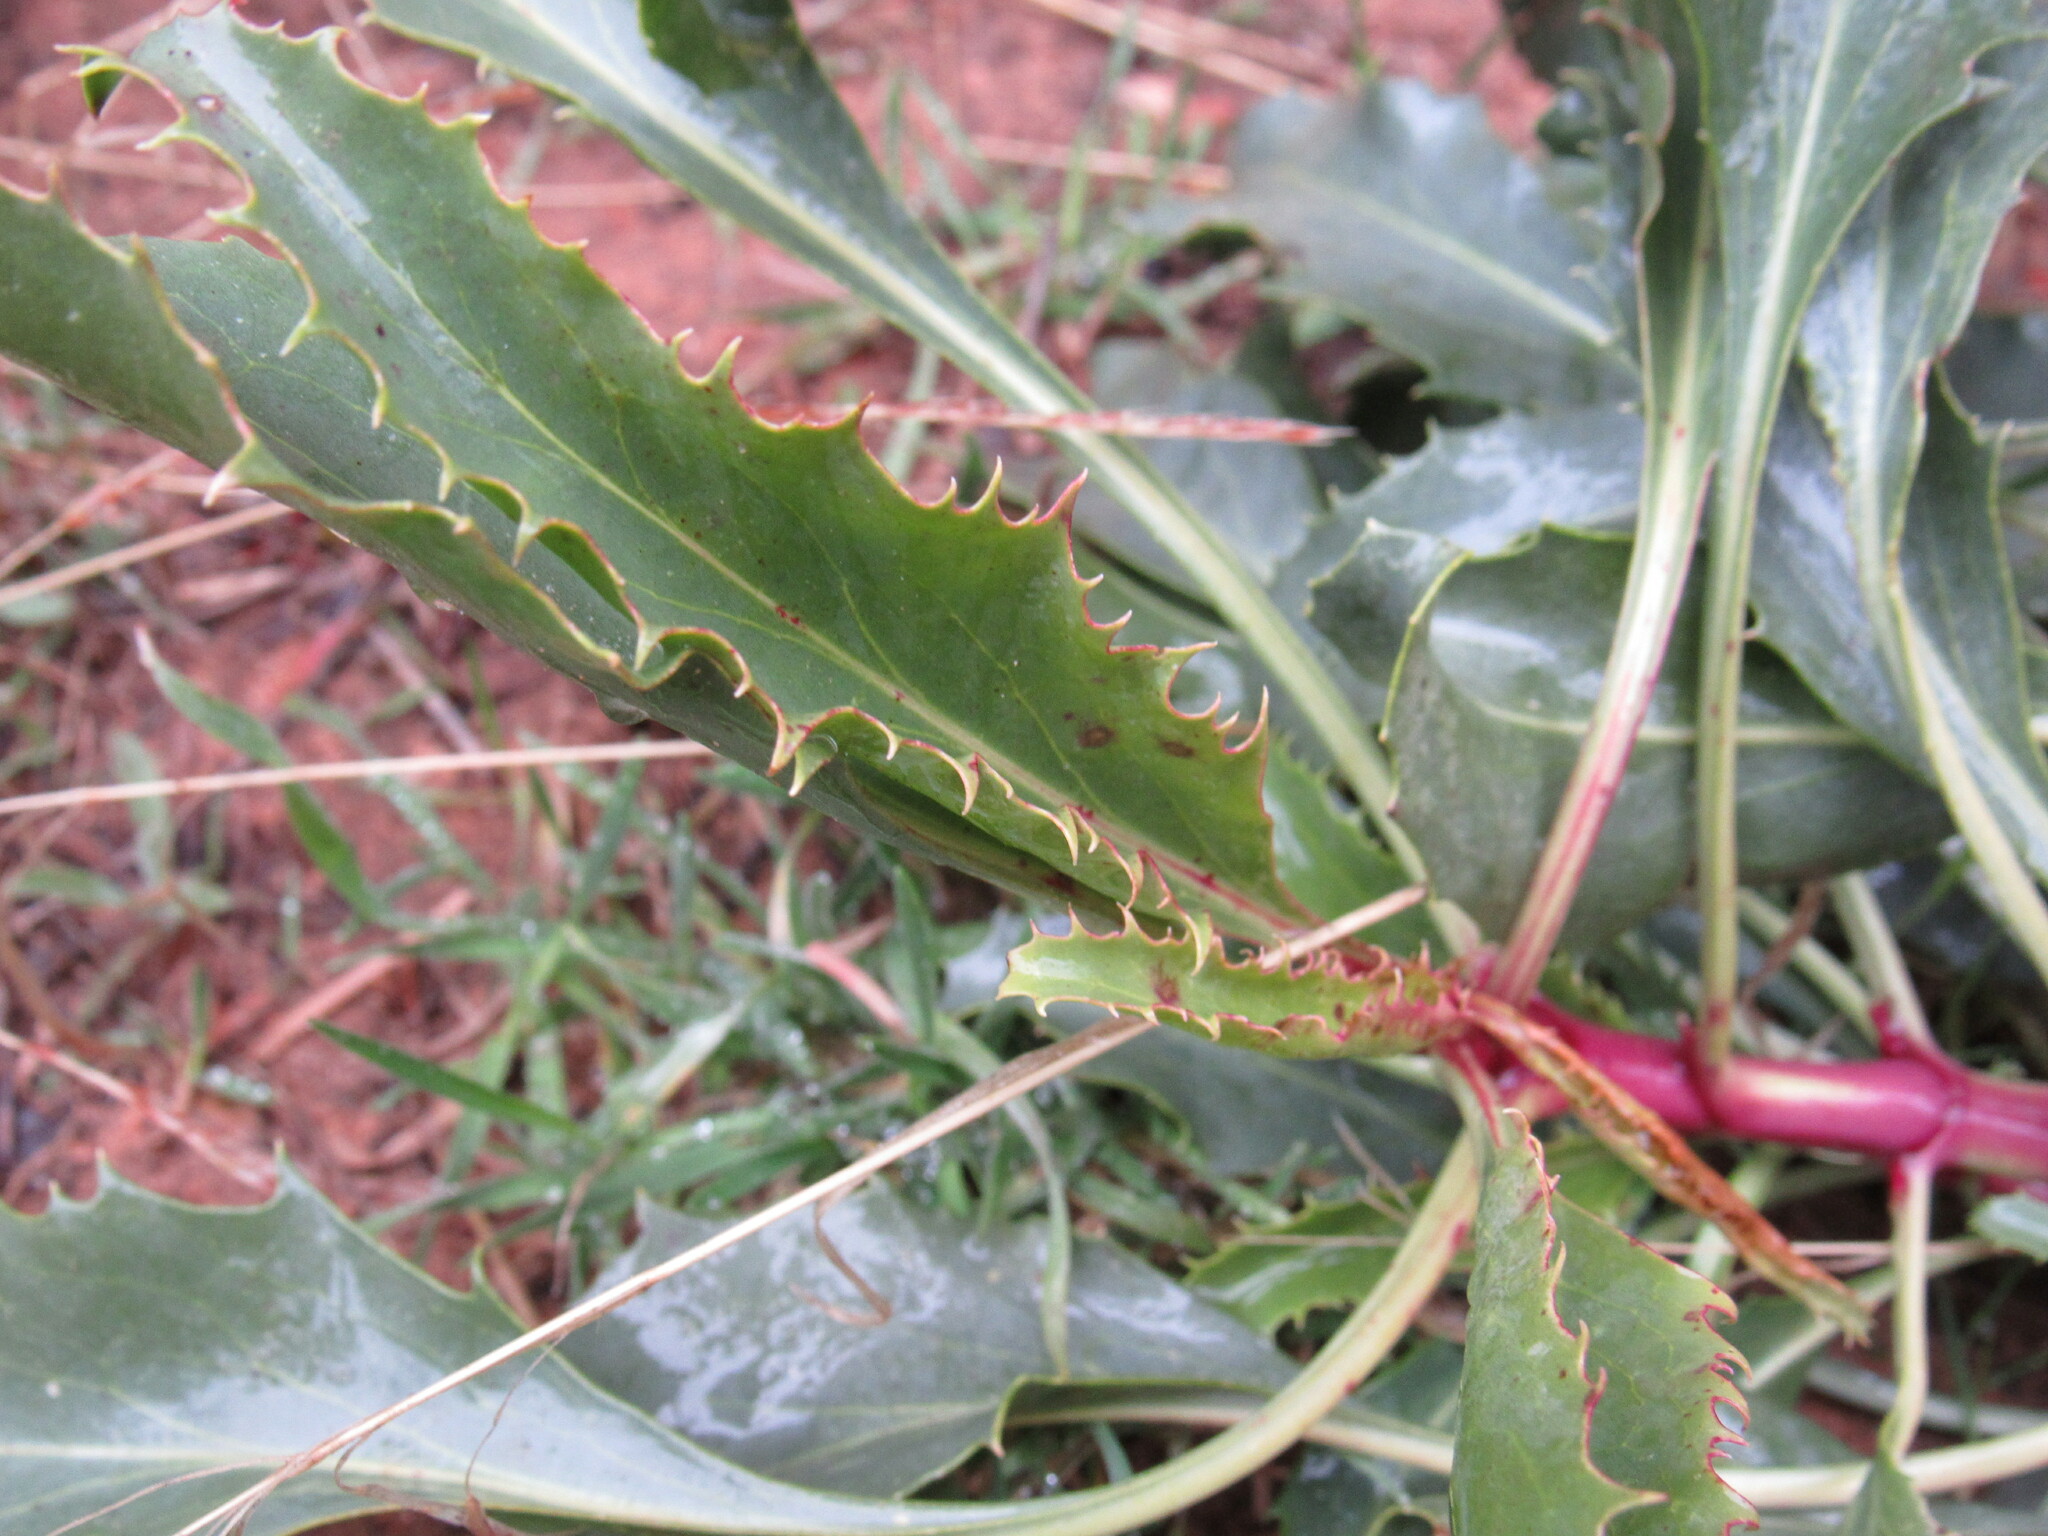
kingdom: Plantae
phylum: Tracheophyta
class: Magnoliopsida
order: Lamiales
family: Plantaginaceae
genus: Penstemon
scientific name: Penstemon palmeri
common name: Palmer penstemon
